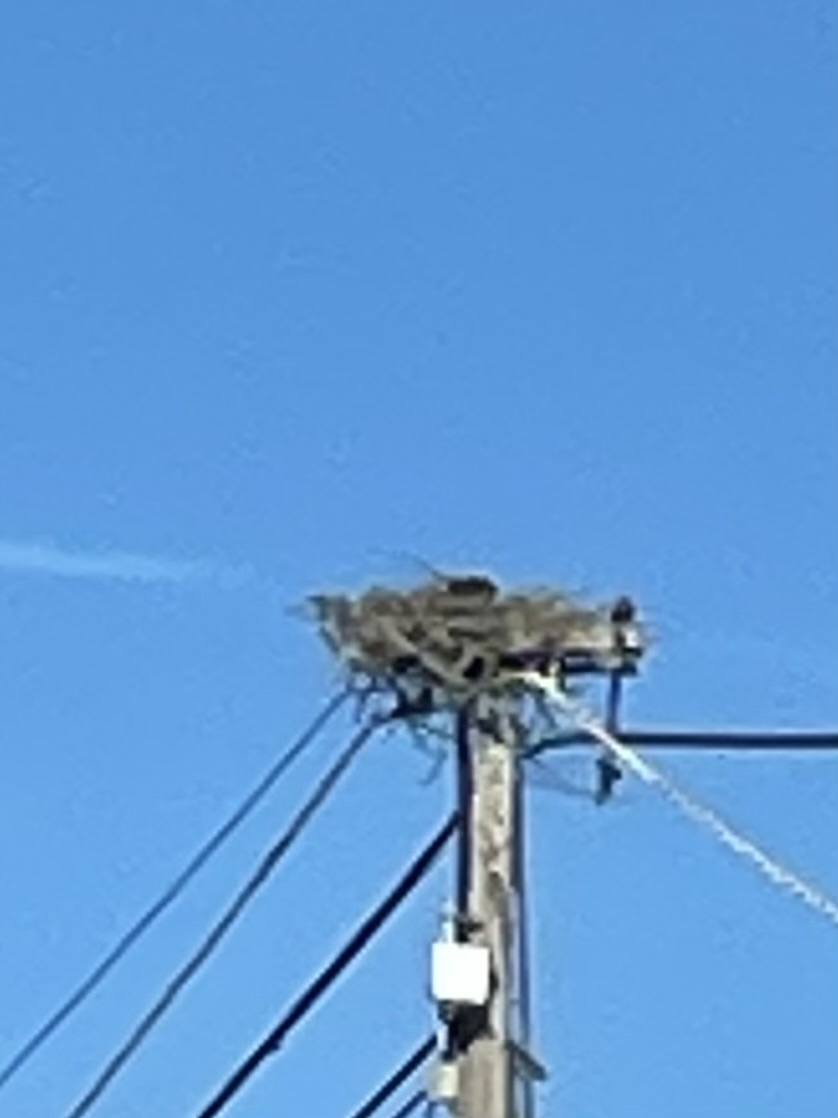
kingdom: Animalia
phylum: Chordata
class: Aves
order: Accipitriformes
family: Pandionidae
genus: Pandion
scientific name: Pandion haliaetus
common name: Osprey
